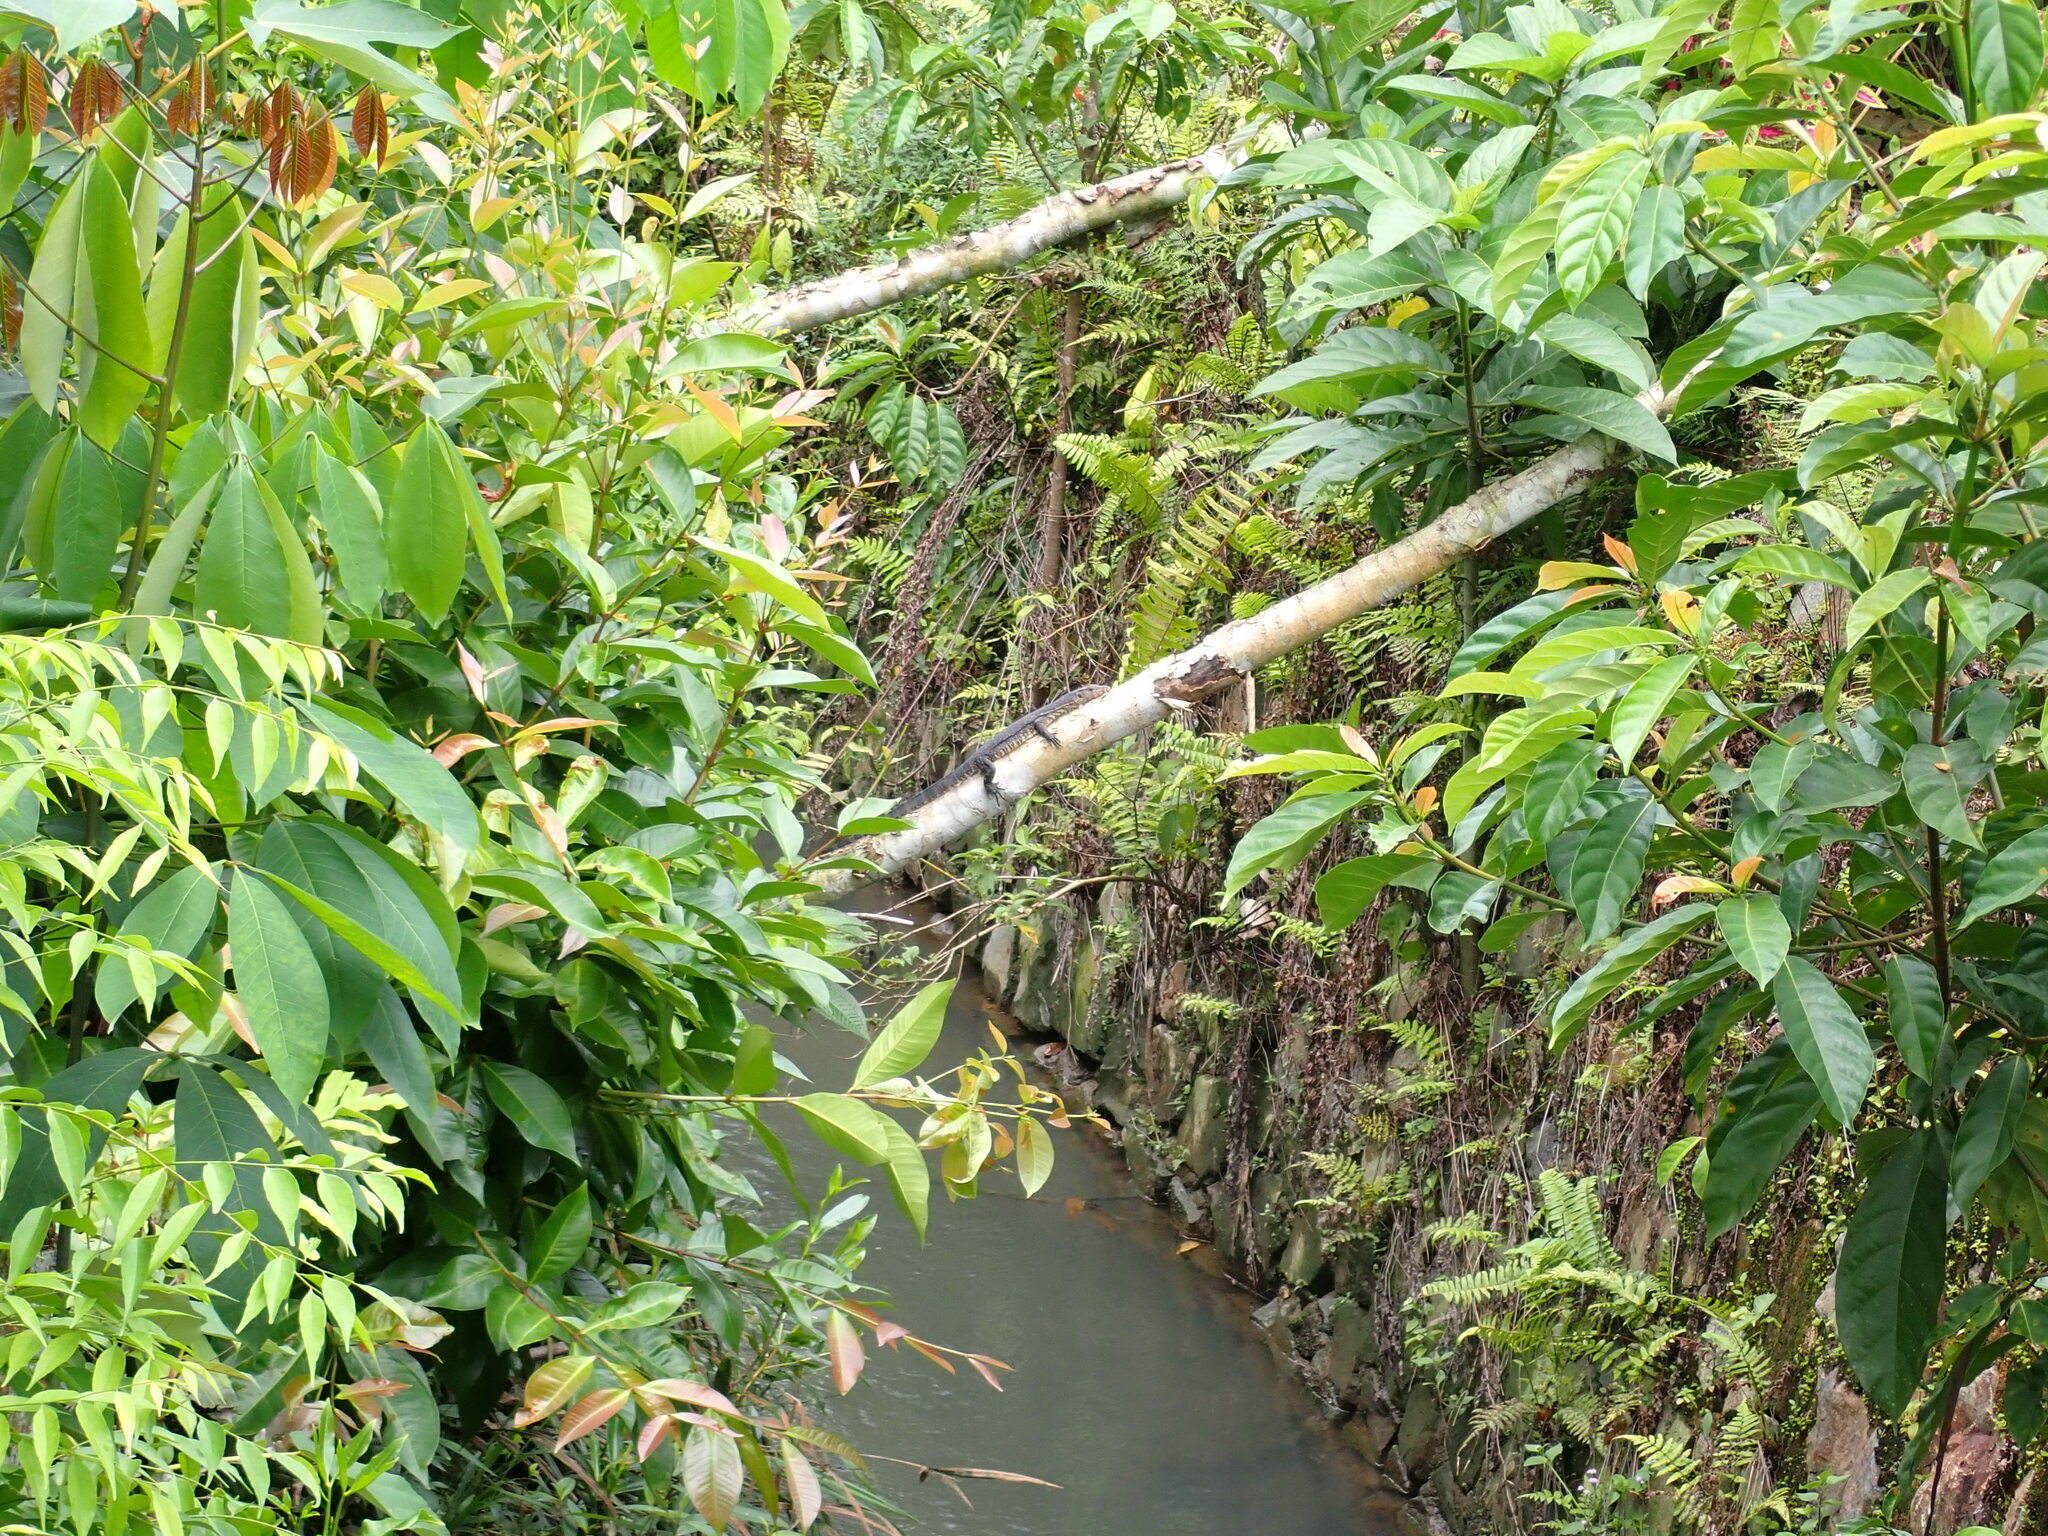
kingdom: Animalia
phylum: Chordata
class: Squamata
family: Varanidae
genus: Varanus
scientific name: Varanus salvator
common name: Common water monitor
